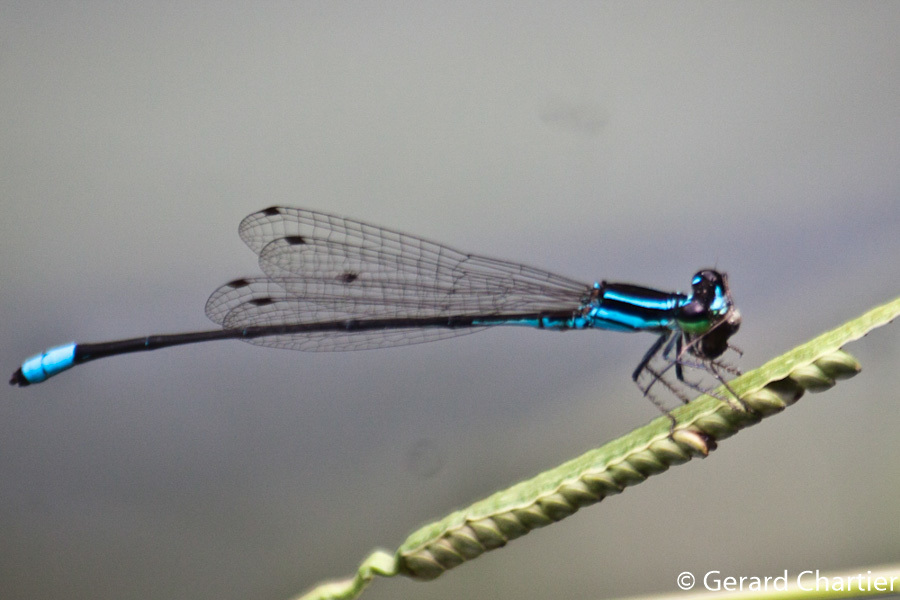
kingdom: Animalia
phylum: Arthropoda
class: Insecta
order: Odonata
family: Coenagrionidae
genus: Argiocnemis
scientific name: Argiocnemis rubescens
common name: Red-tipped shadefly
